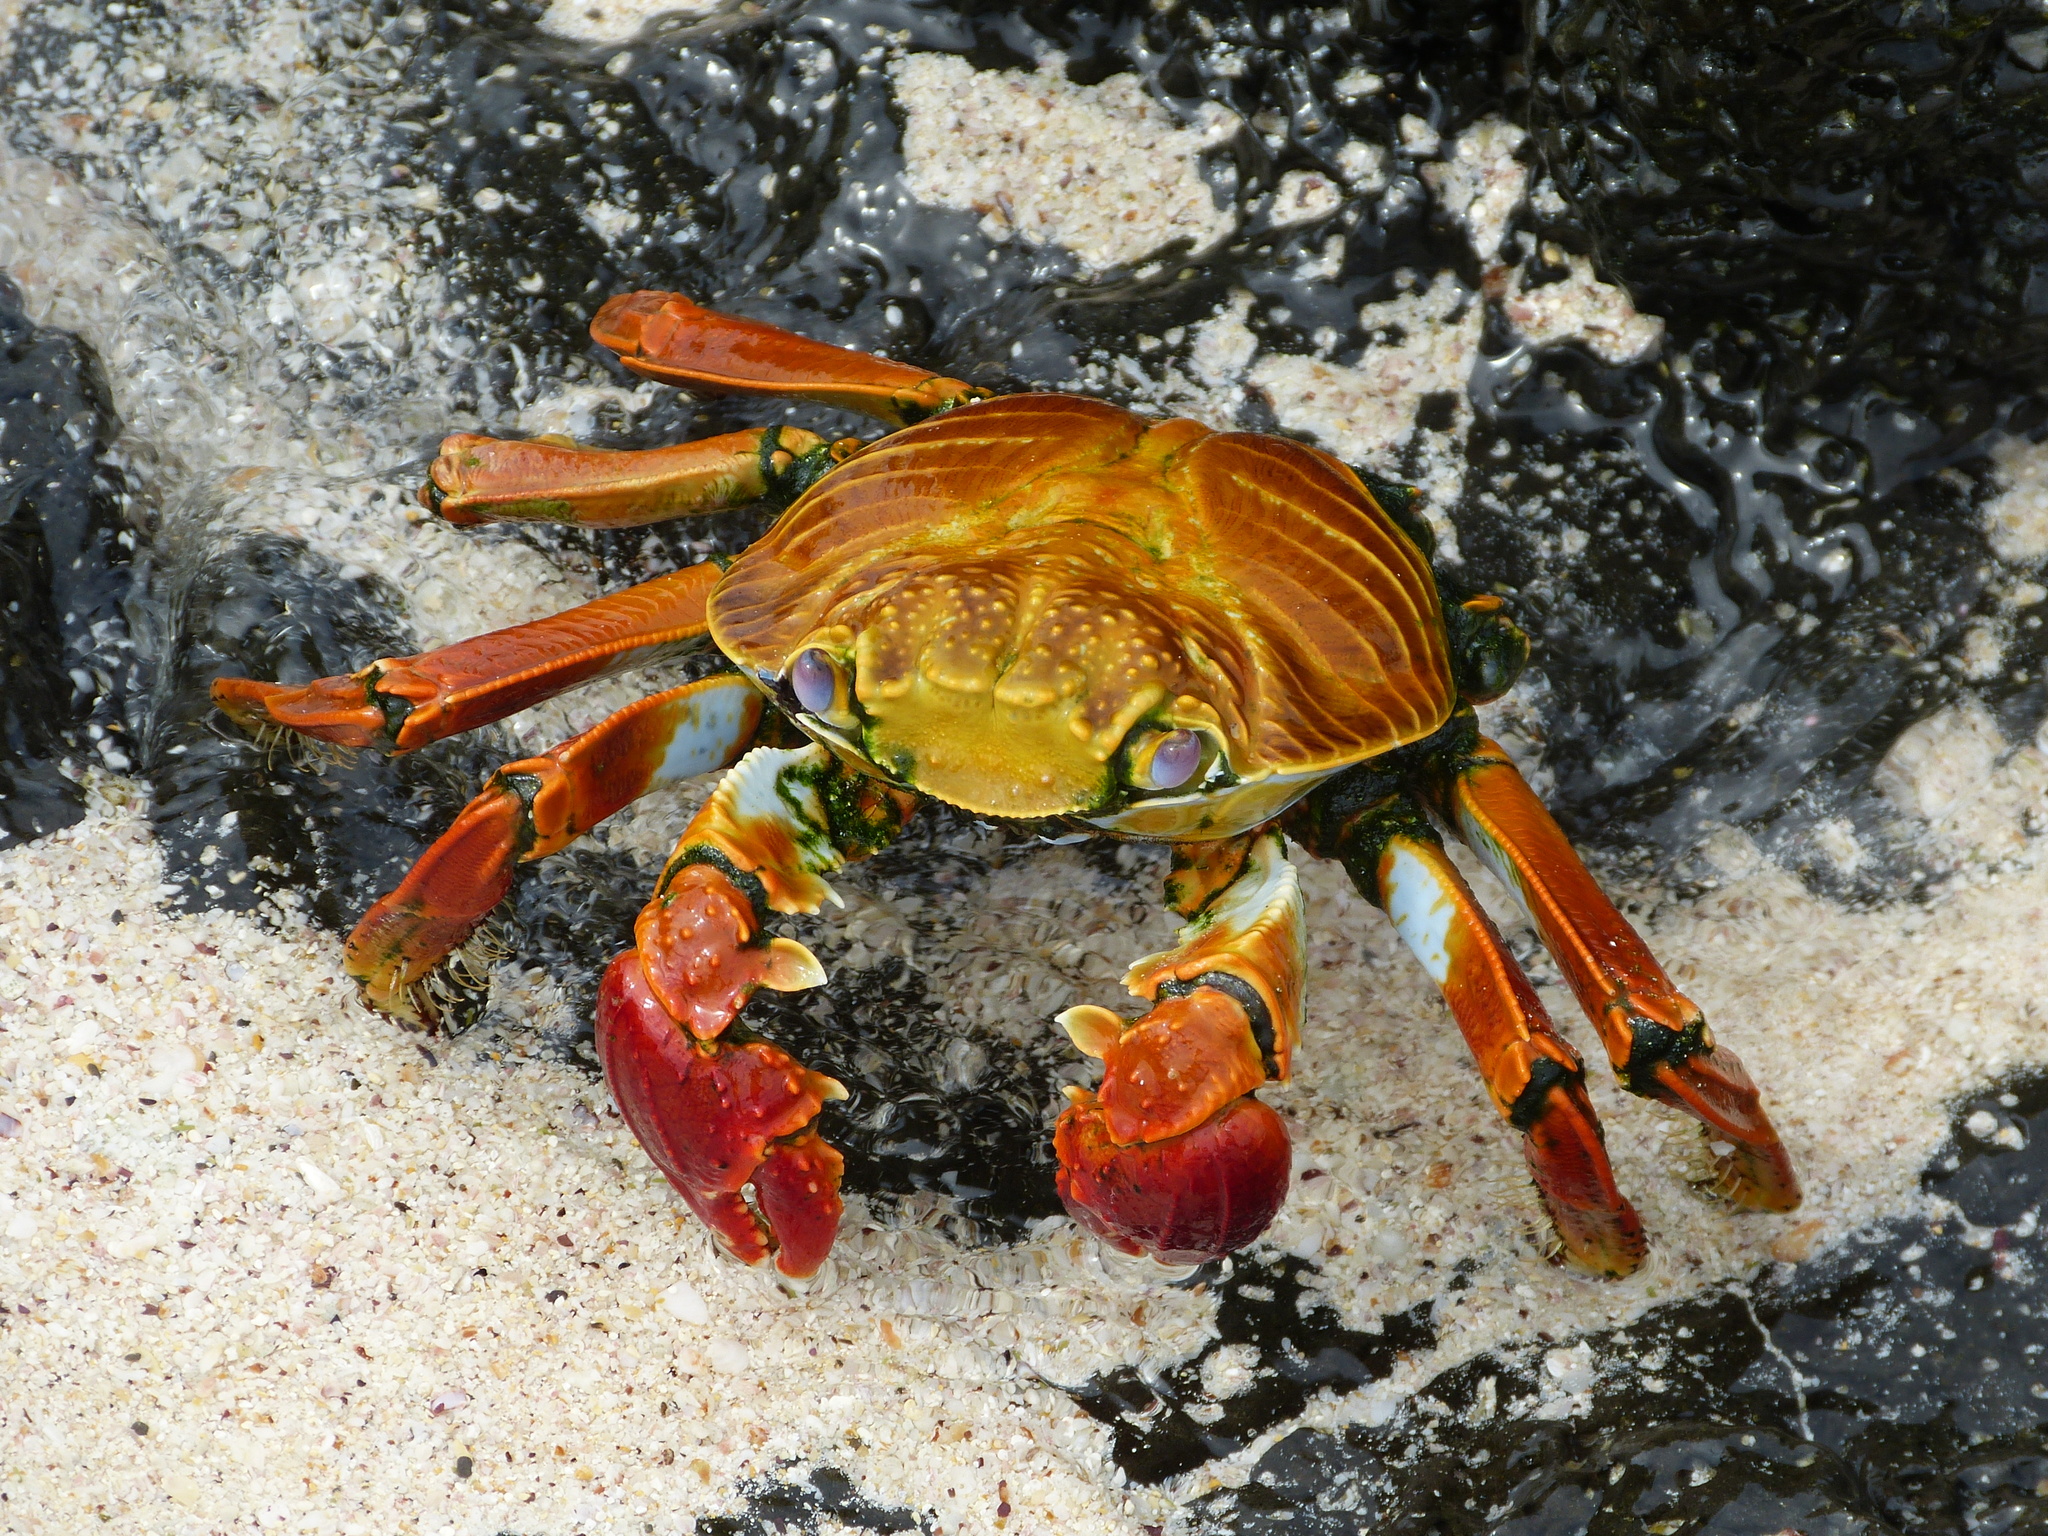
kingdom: Animalia
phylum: Arthropoda
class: Malacostraca
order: Decapoda
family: Grapsidae
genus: Grapsus
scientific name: Grapsus grapsus
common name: Sally lightfoot
